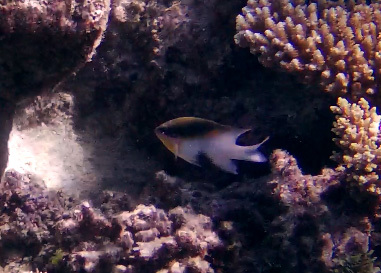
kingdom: Animalia
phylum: Chordata
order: Perciformes
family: Pomacentridae
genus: Dischistodus
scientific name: Dischistodus melanotus
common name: Black-vent damsel
